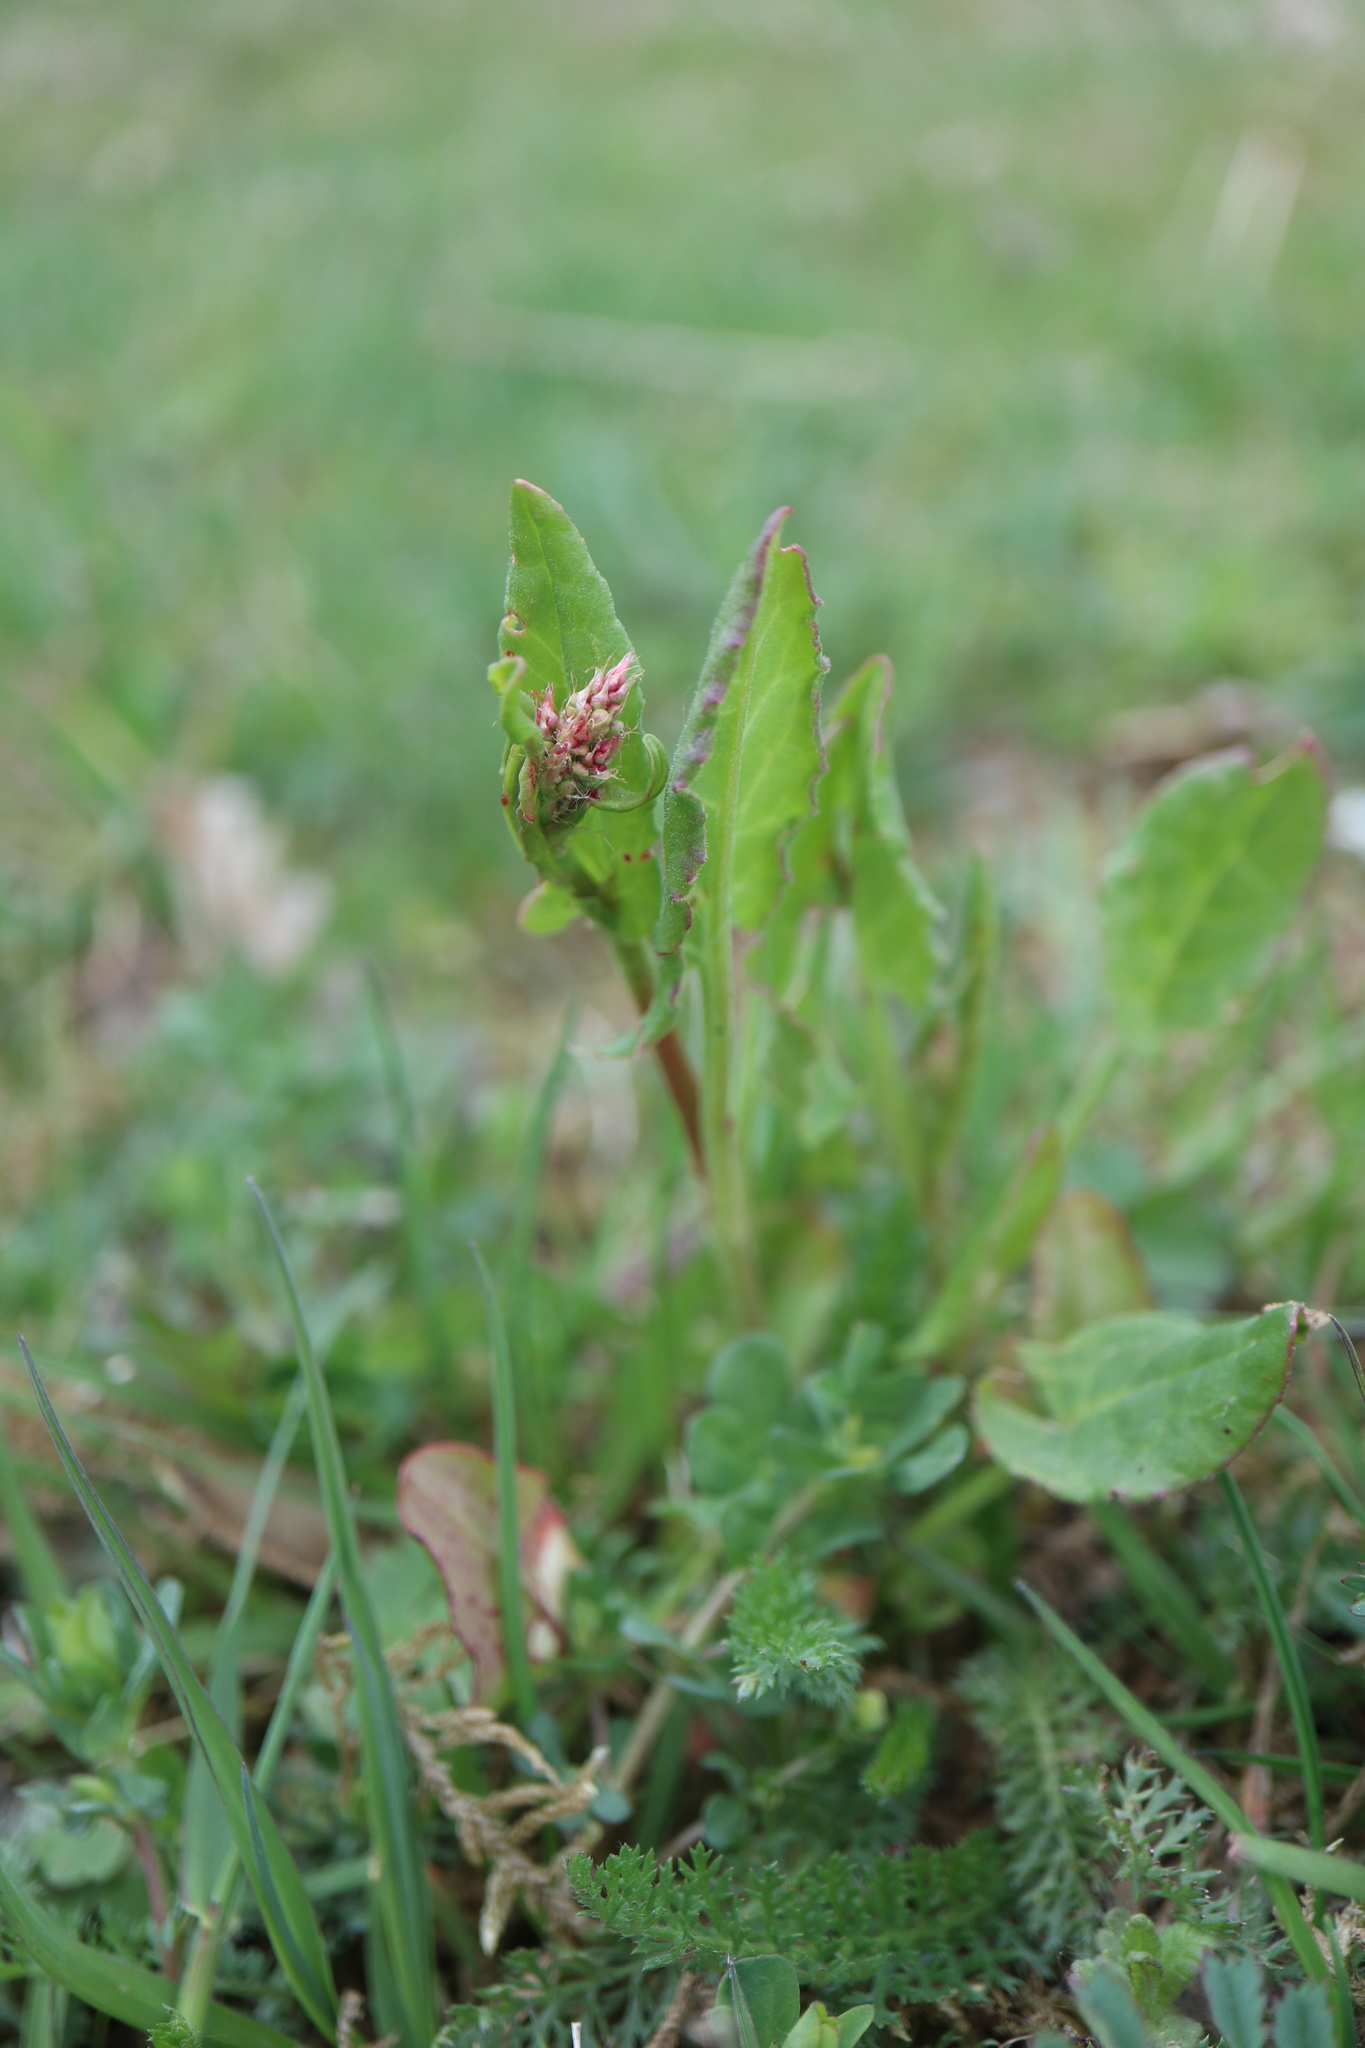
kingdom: Plantae
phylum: Tracheophyta
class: Magnoliopsida
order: Caryophyllales
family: Polygonaceae
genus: Rumex
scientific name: Rumex acetosa
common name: Garden sorrel
